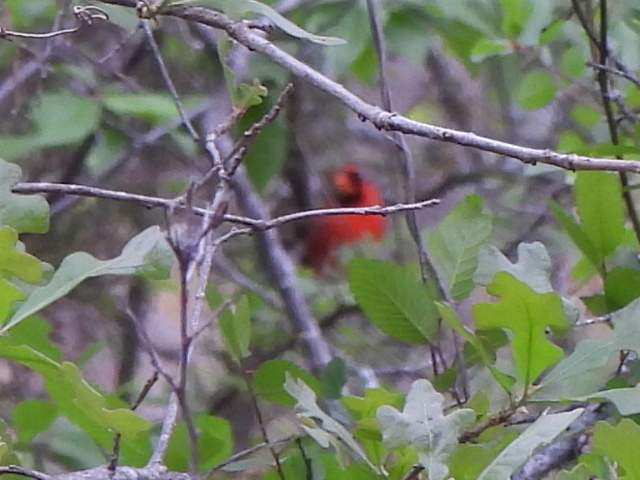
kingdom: Animalia
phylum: Chordata
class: Aves
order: Passeriformes
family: Cardinalidae
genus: Cardinalis
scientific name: Cardinalis cardinalis
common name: Northern cardinal
